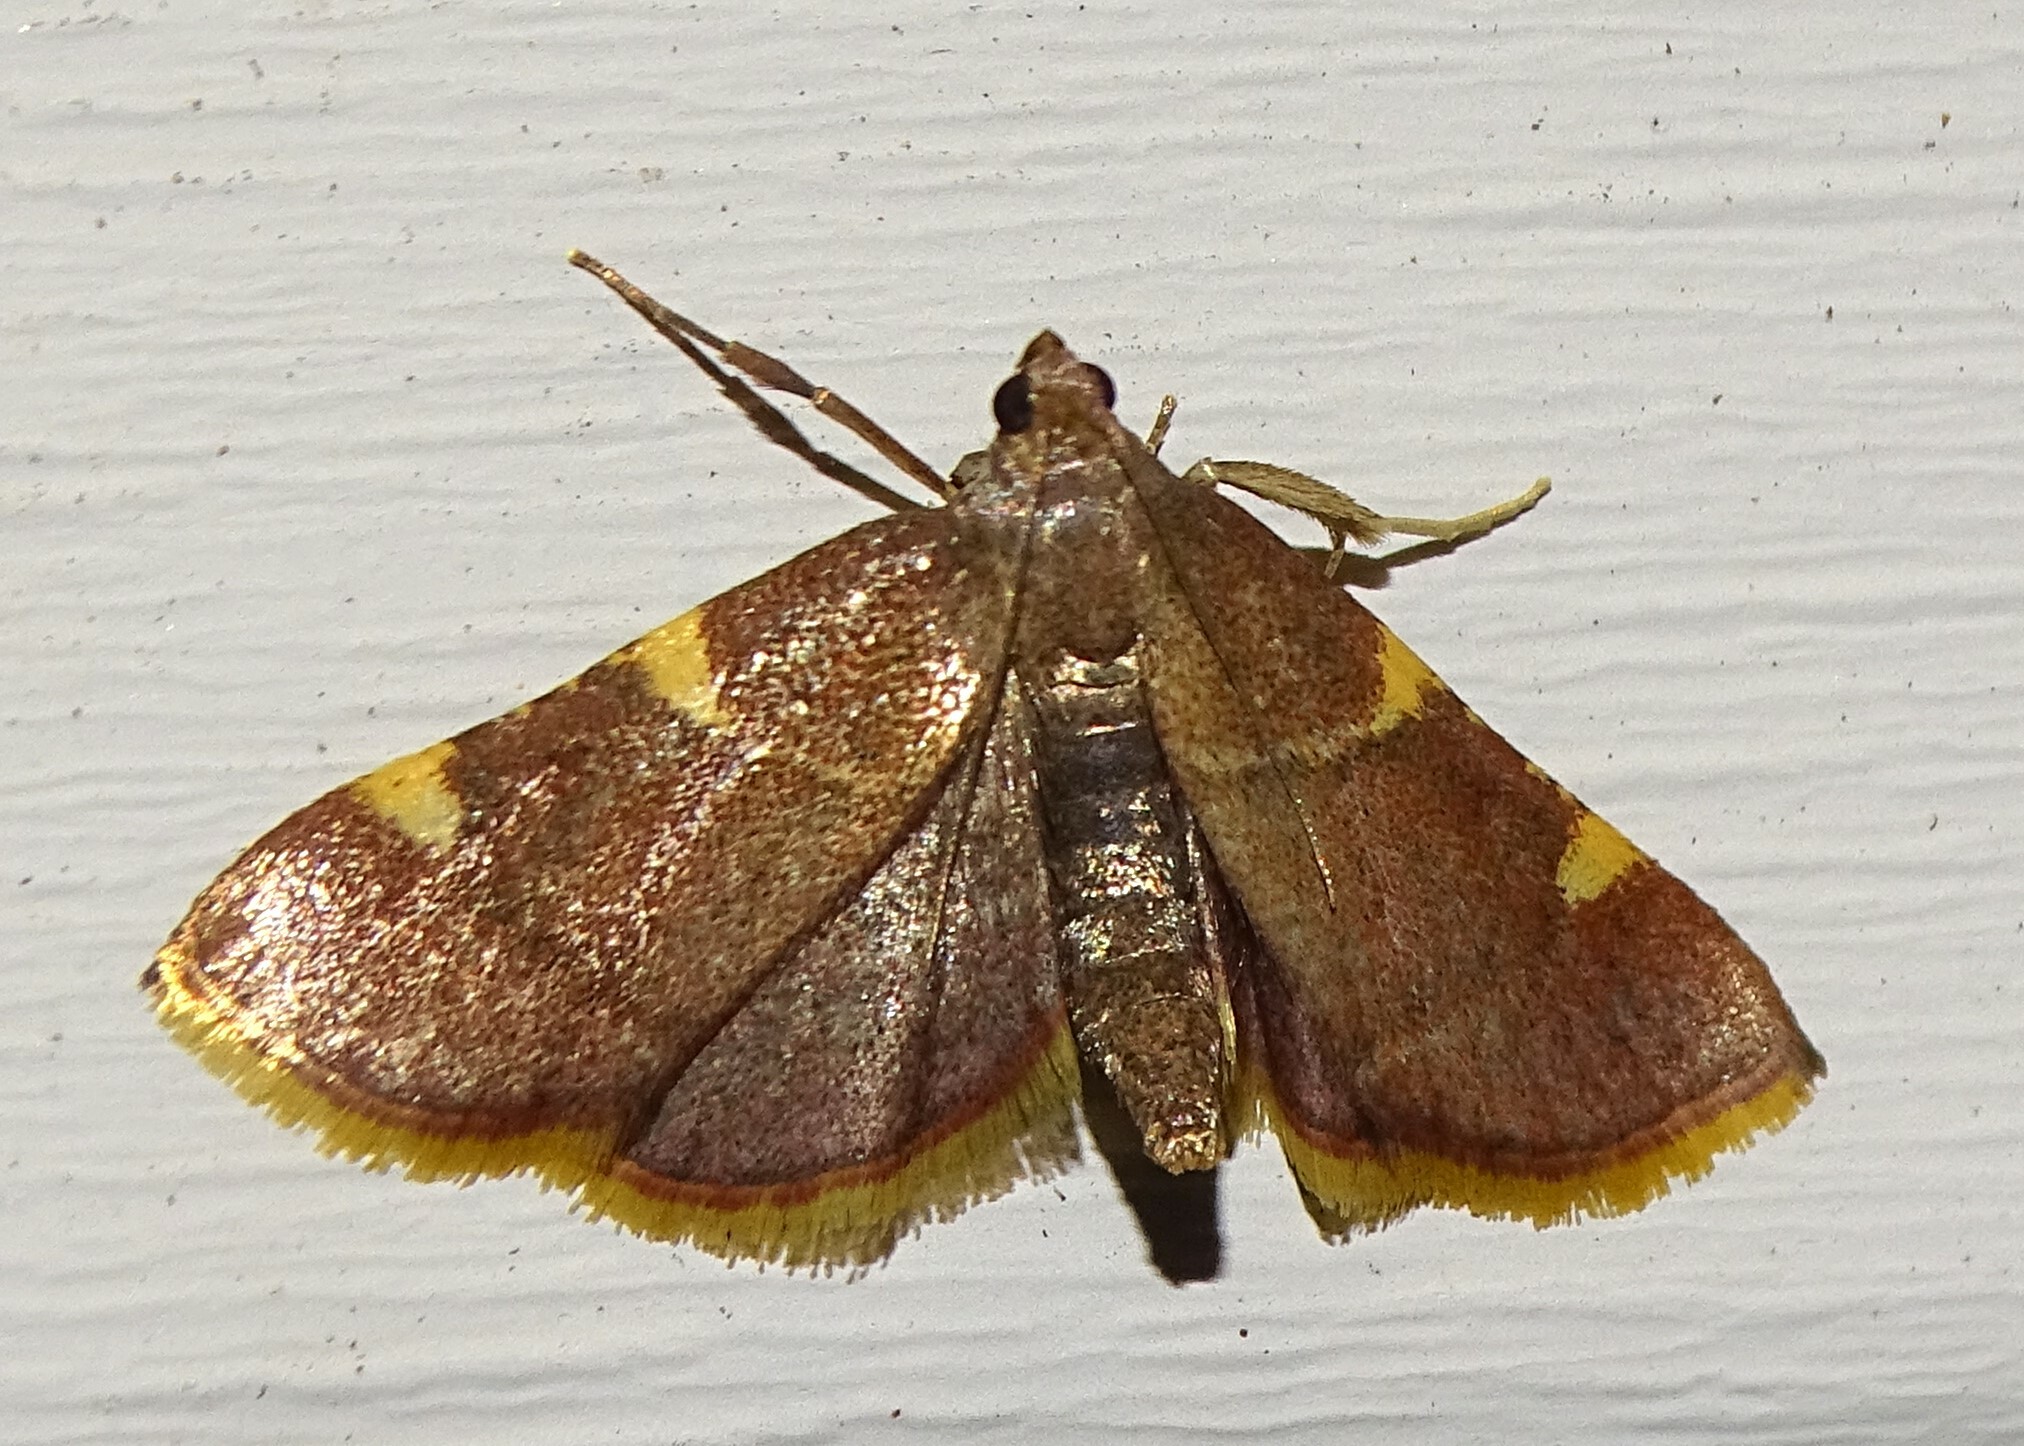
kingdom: Animalia
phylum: Arthropoda
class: Insecta
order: Lepidoptera
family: Pyralidae
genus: Hypsopygia
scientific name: Hypsopygia olinalis
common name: Yellow-fringed dolichomia moth
